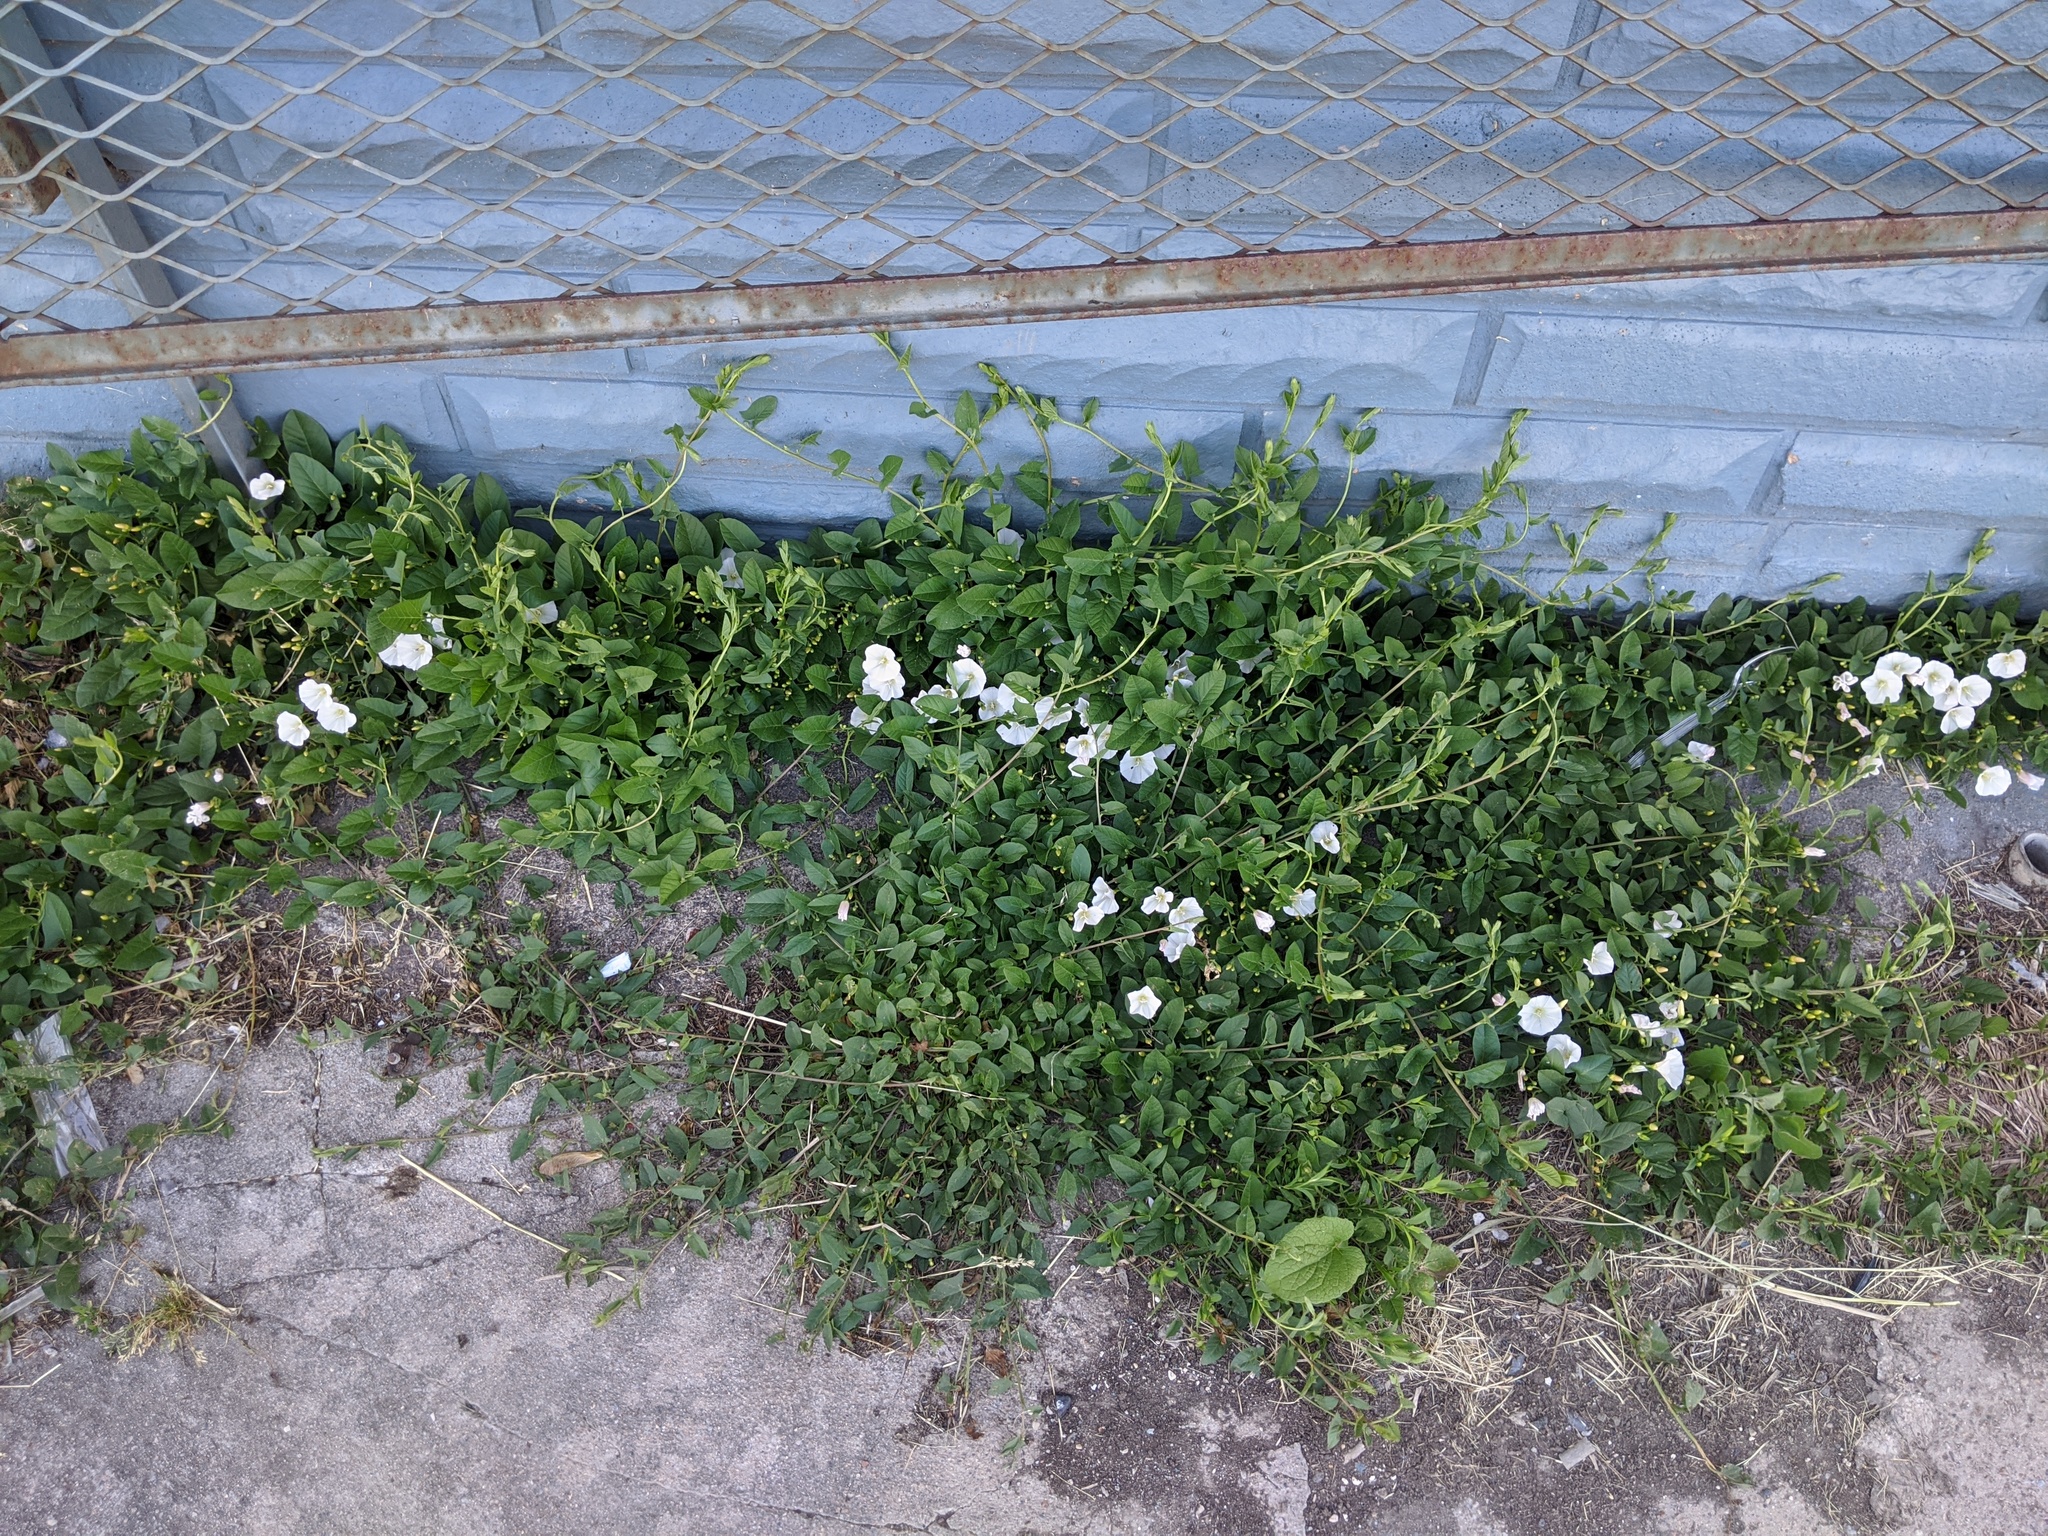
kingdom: Plantae
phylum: Tracheophyta
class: Magnoliopsida
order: Solanales
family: Convolvulaceae
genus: Convolvulus
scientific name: Convolvulus arvensis
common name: Field bindweed
